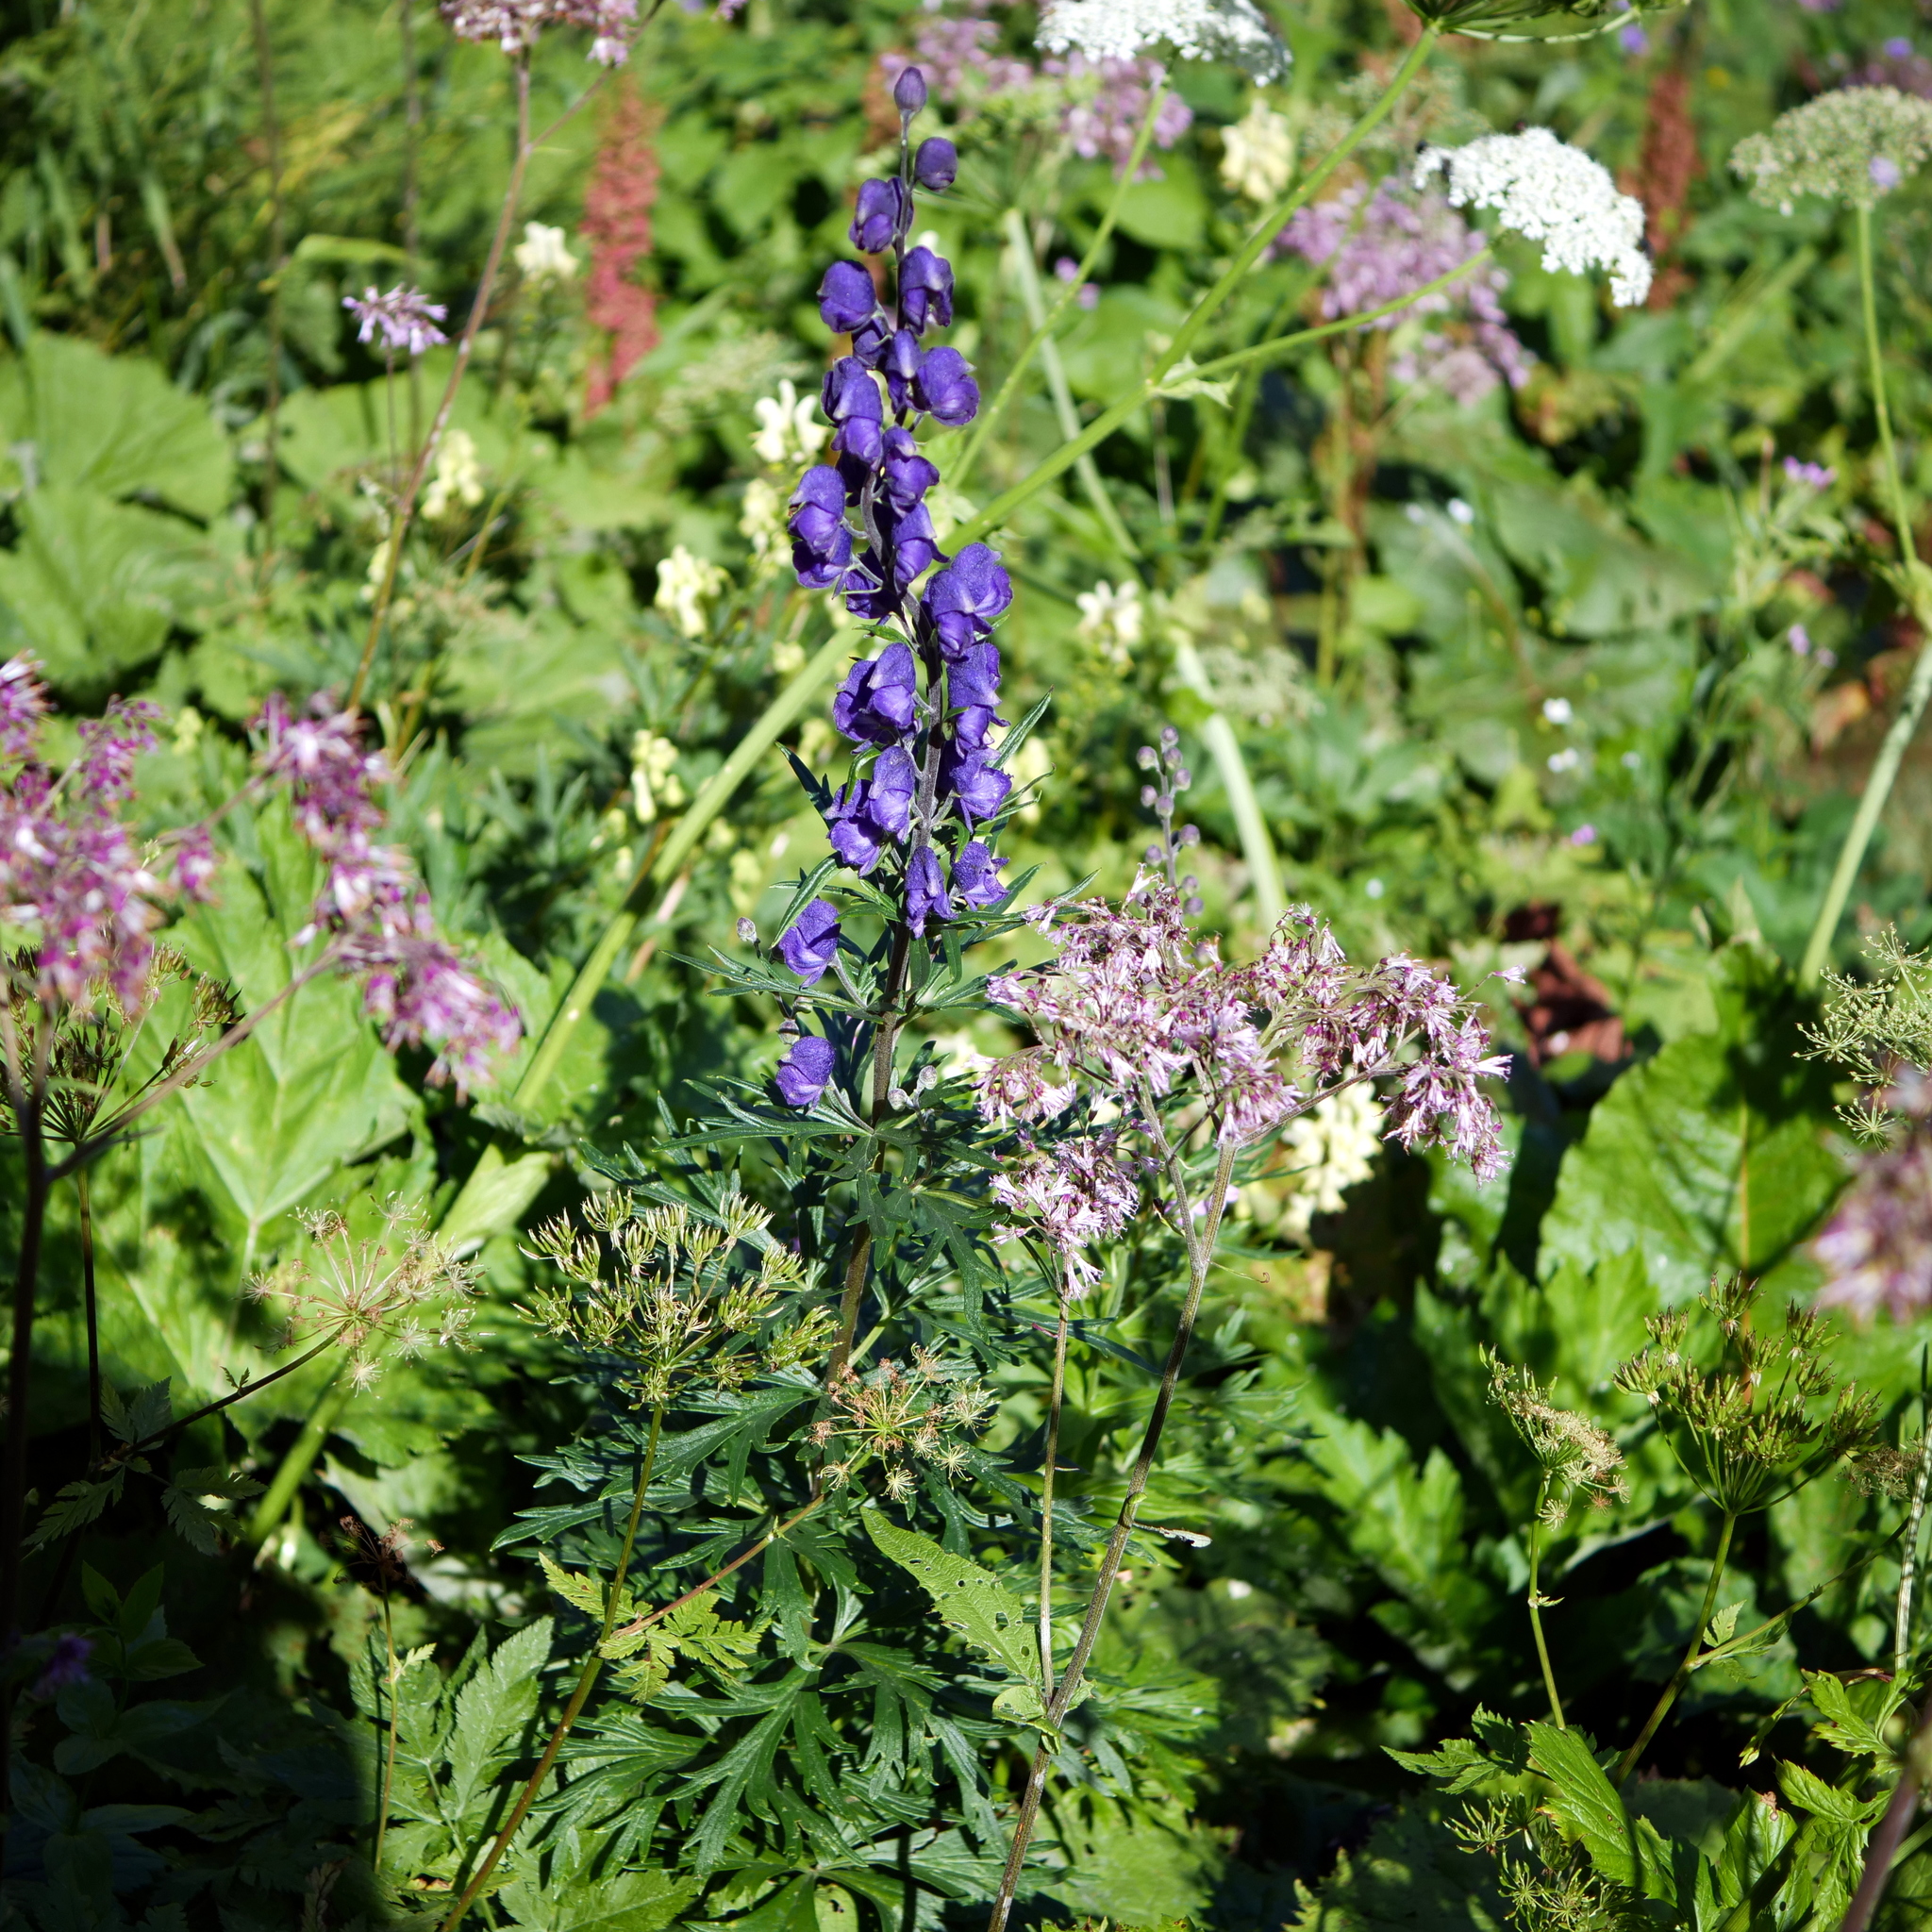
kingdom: Plantae
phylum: Tracheophyta
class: Magnoliopsida
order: Ranunculales
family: Ranunculaceae
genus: Aconitum
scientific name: Aconitum napellus
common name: Garden monkshood
